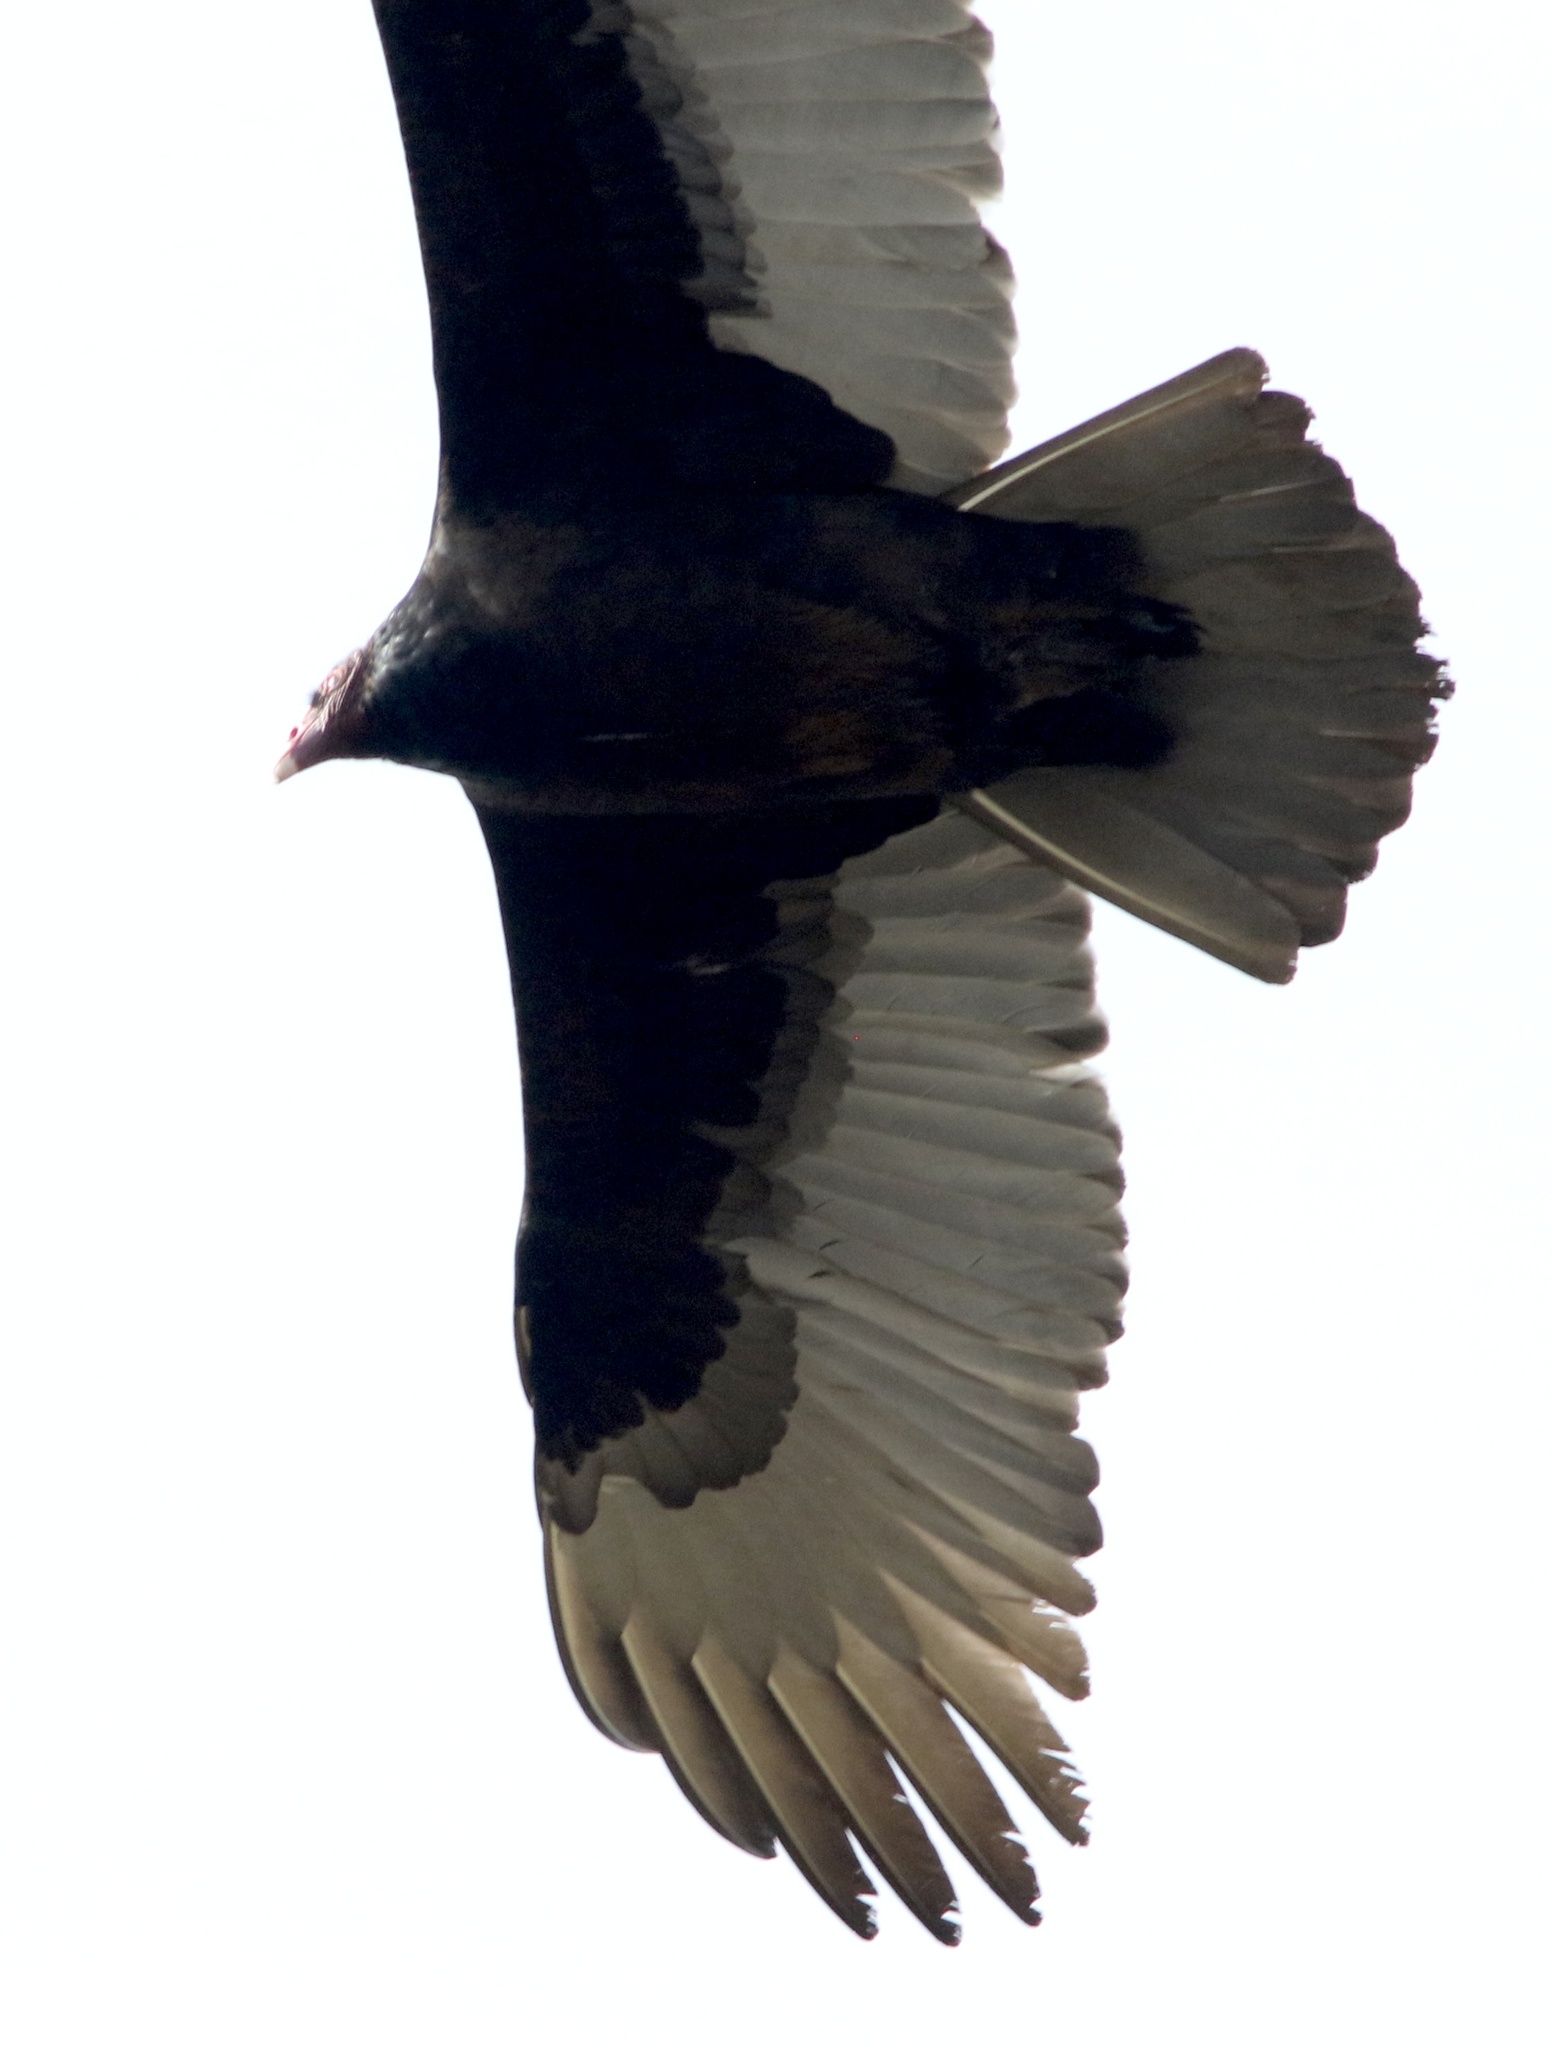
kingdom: Animalia
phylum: Chordata
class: Aves
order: Accipitriformes
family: Cathartidae
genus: Cathartes
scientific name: Cathartes aura
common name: Turkey vulture
